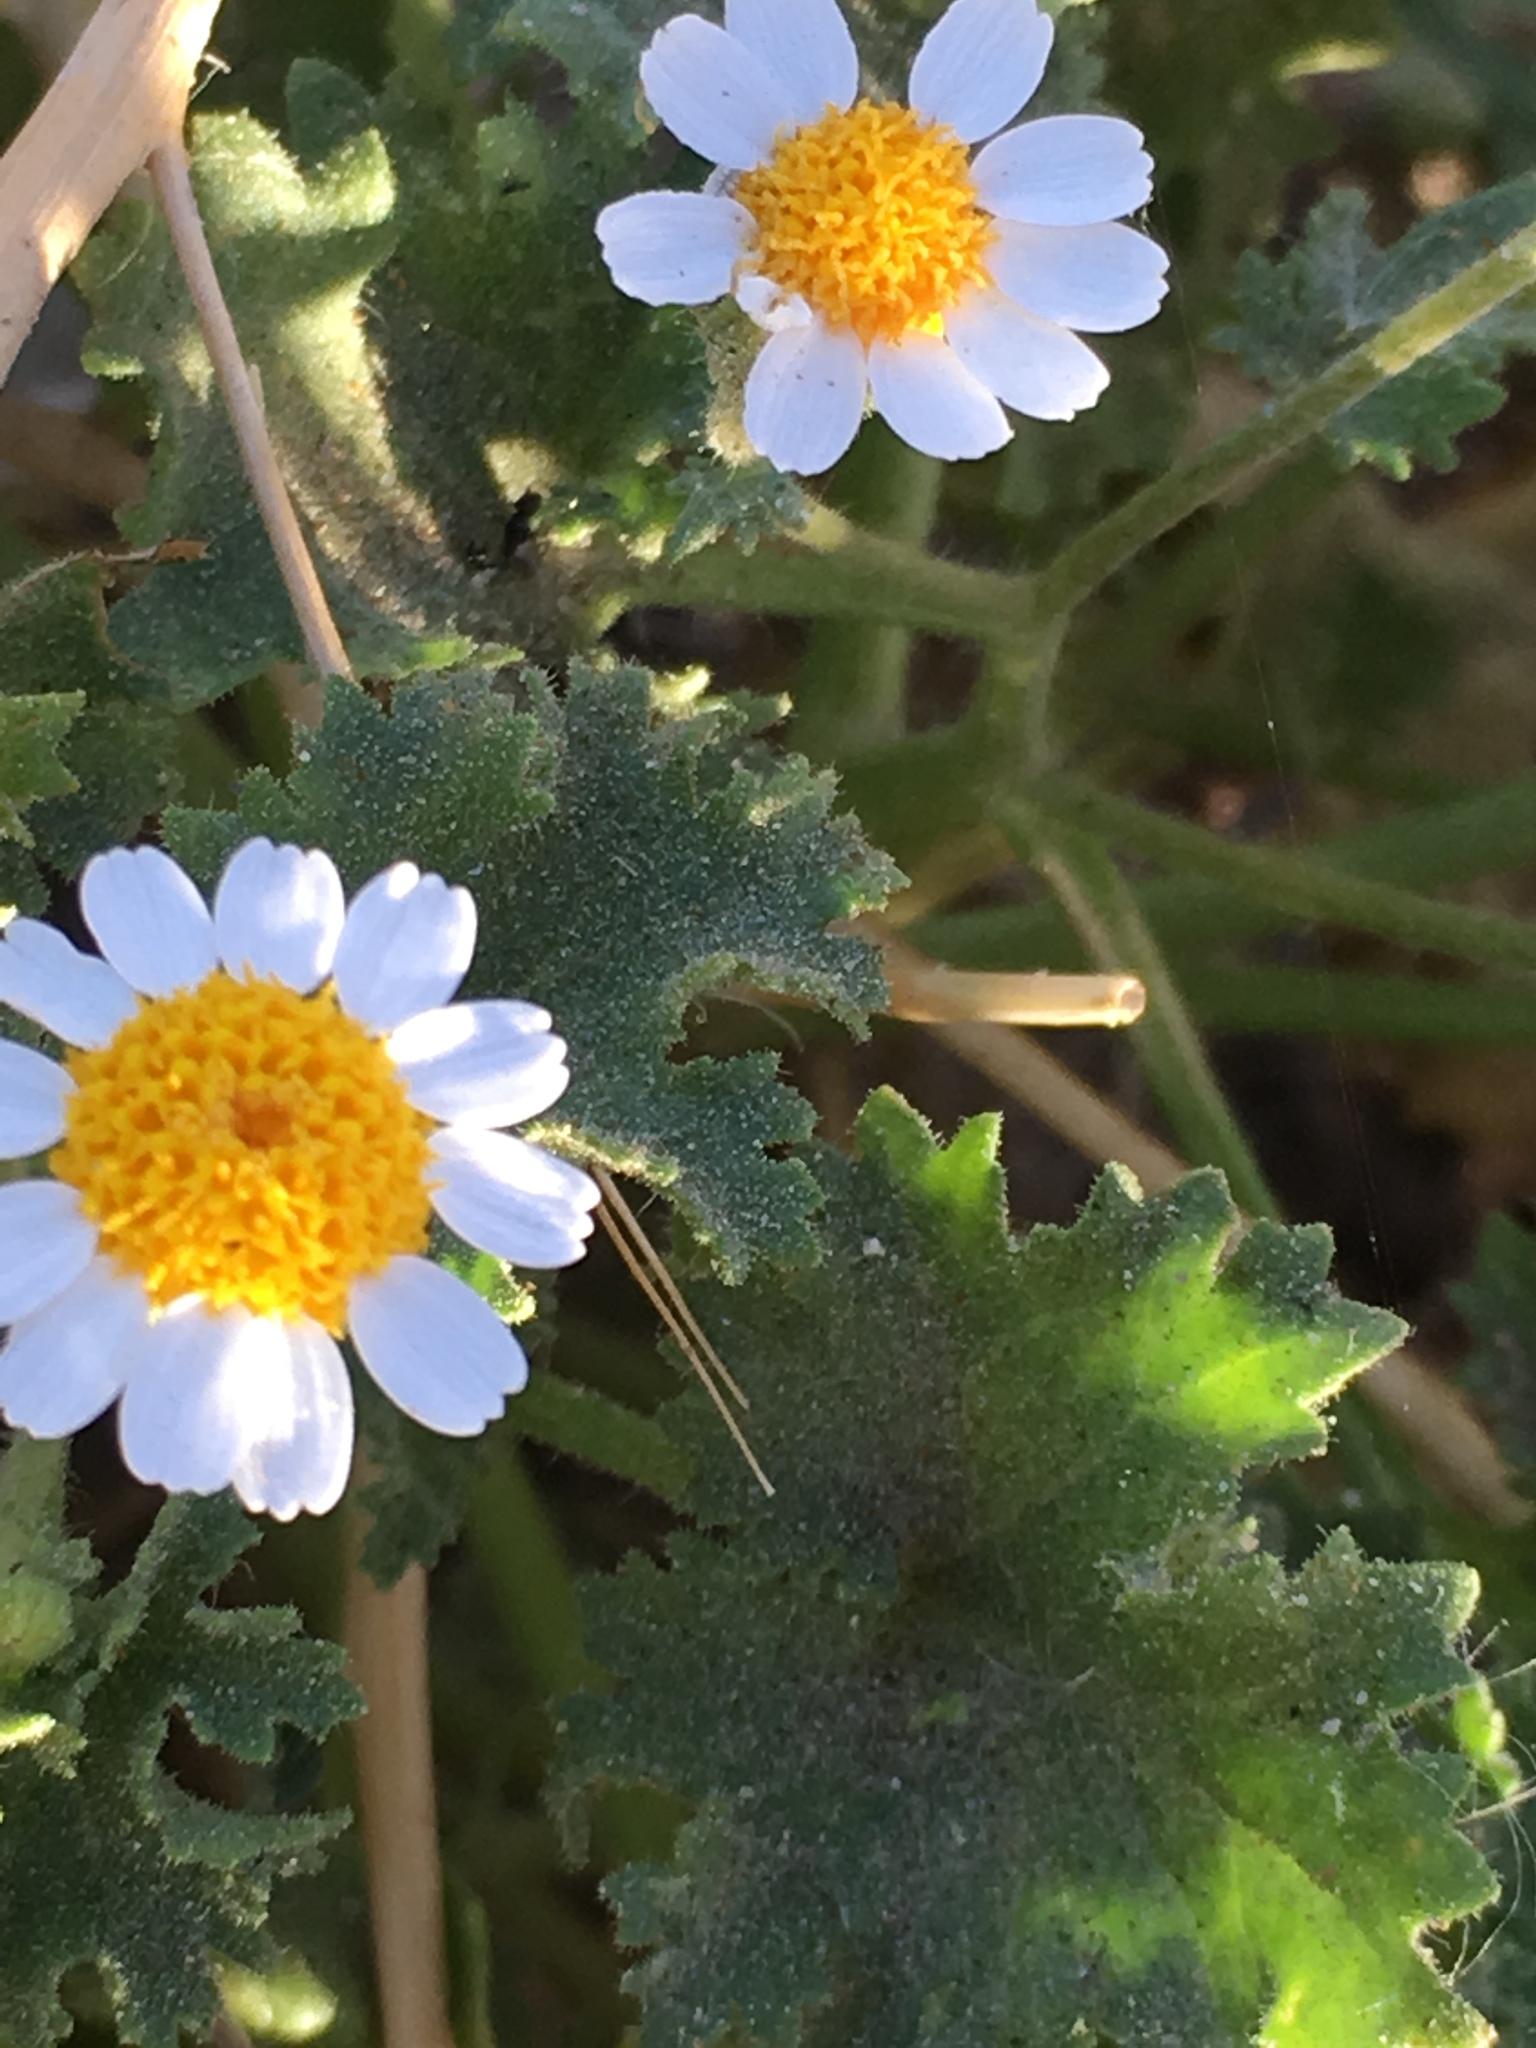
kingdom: Plantae
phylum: Tracheophyta
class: Magnoliopsida
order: Asterales
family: Asteraceae
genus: Laphamia
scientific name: Laphamia emoryi
